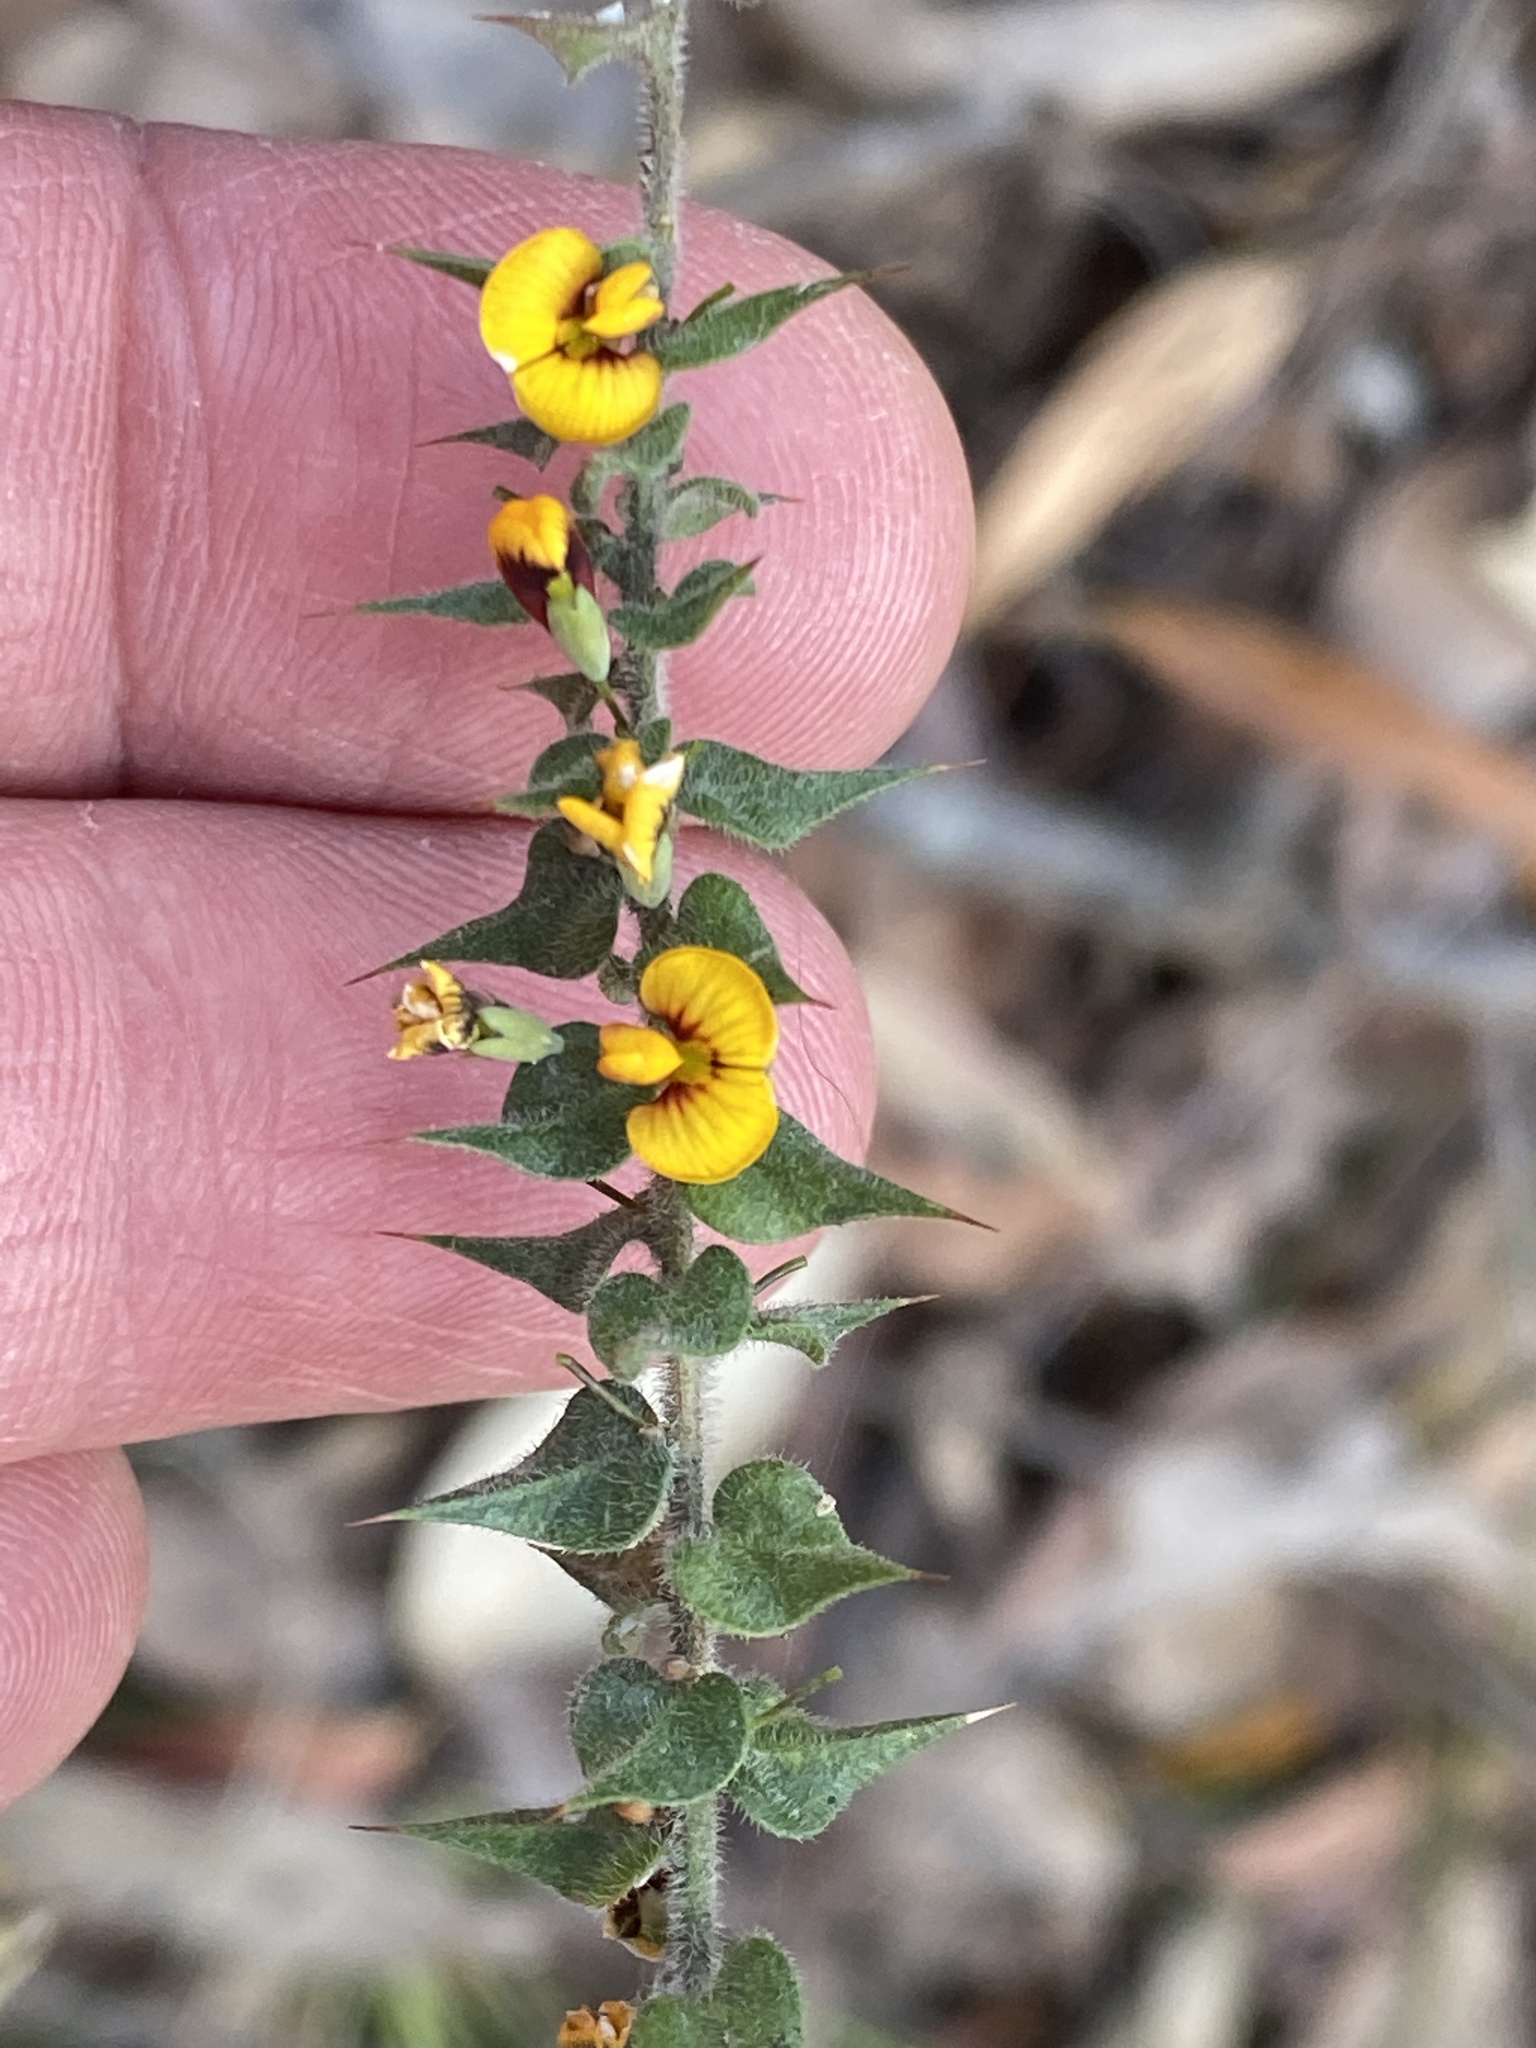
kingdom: Plantae
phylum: Tracheophyta
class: Magnoliopsida
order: Fabales
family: Fabaceae
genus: Daviesia
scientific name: Daviesia villifera
